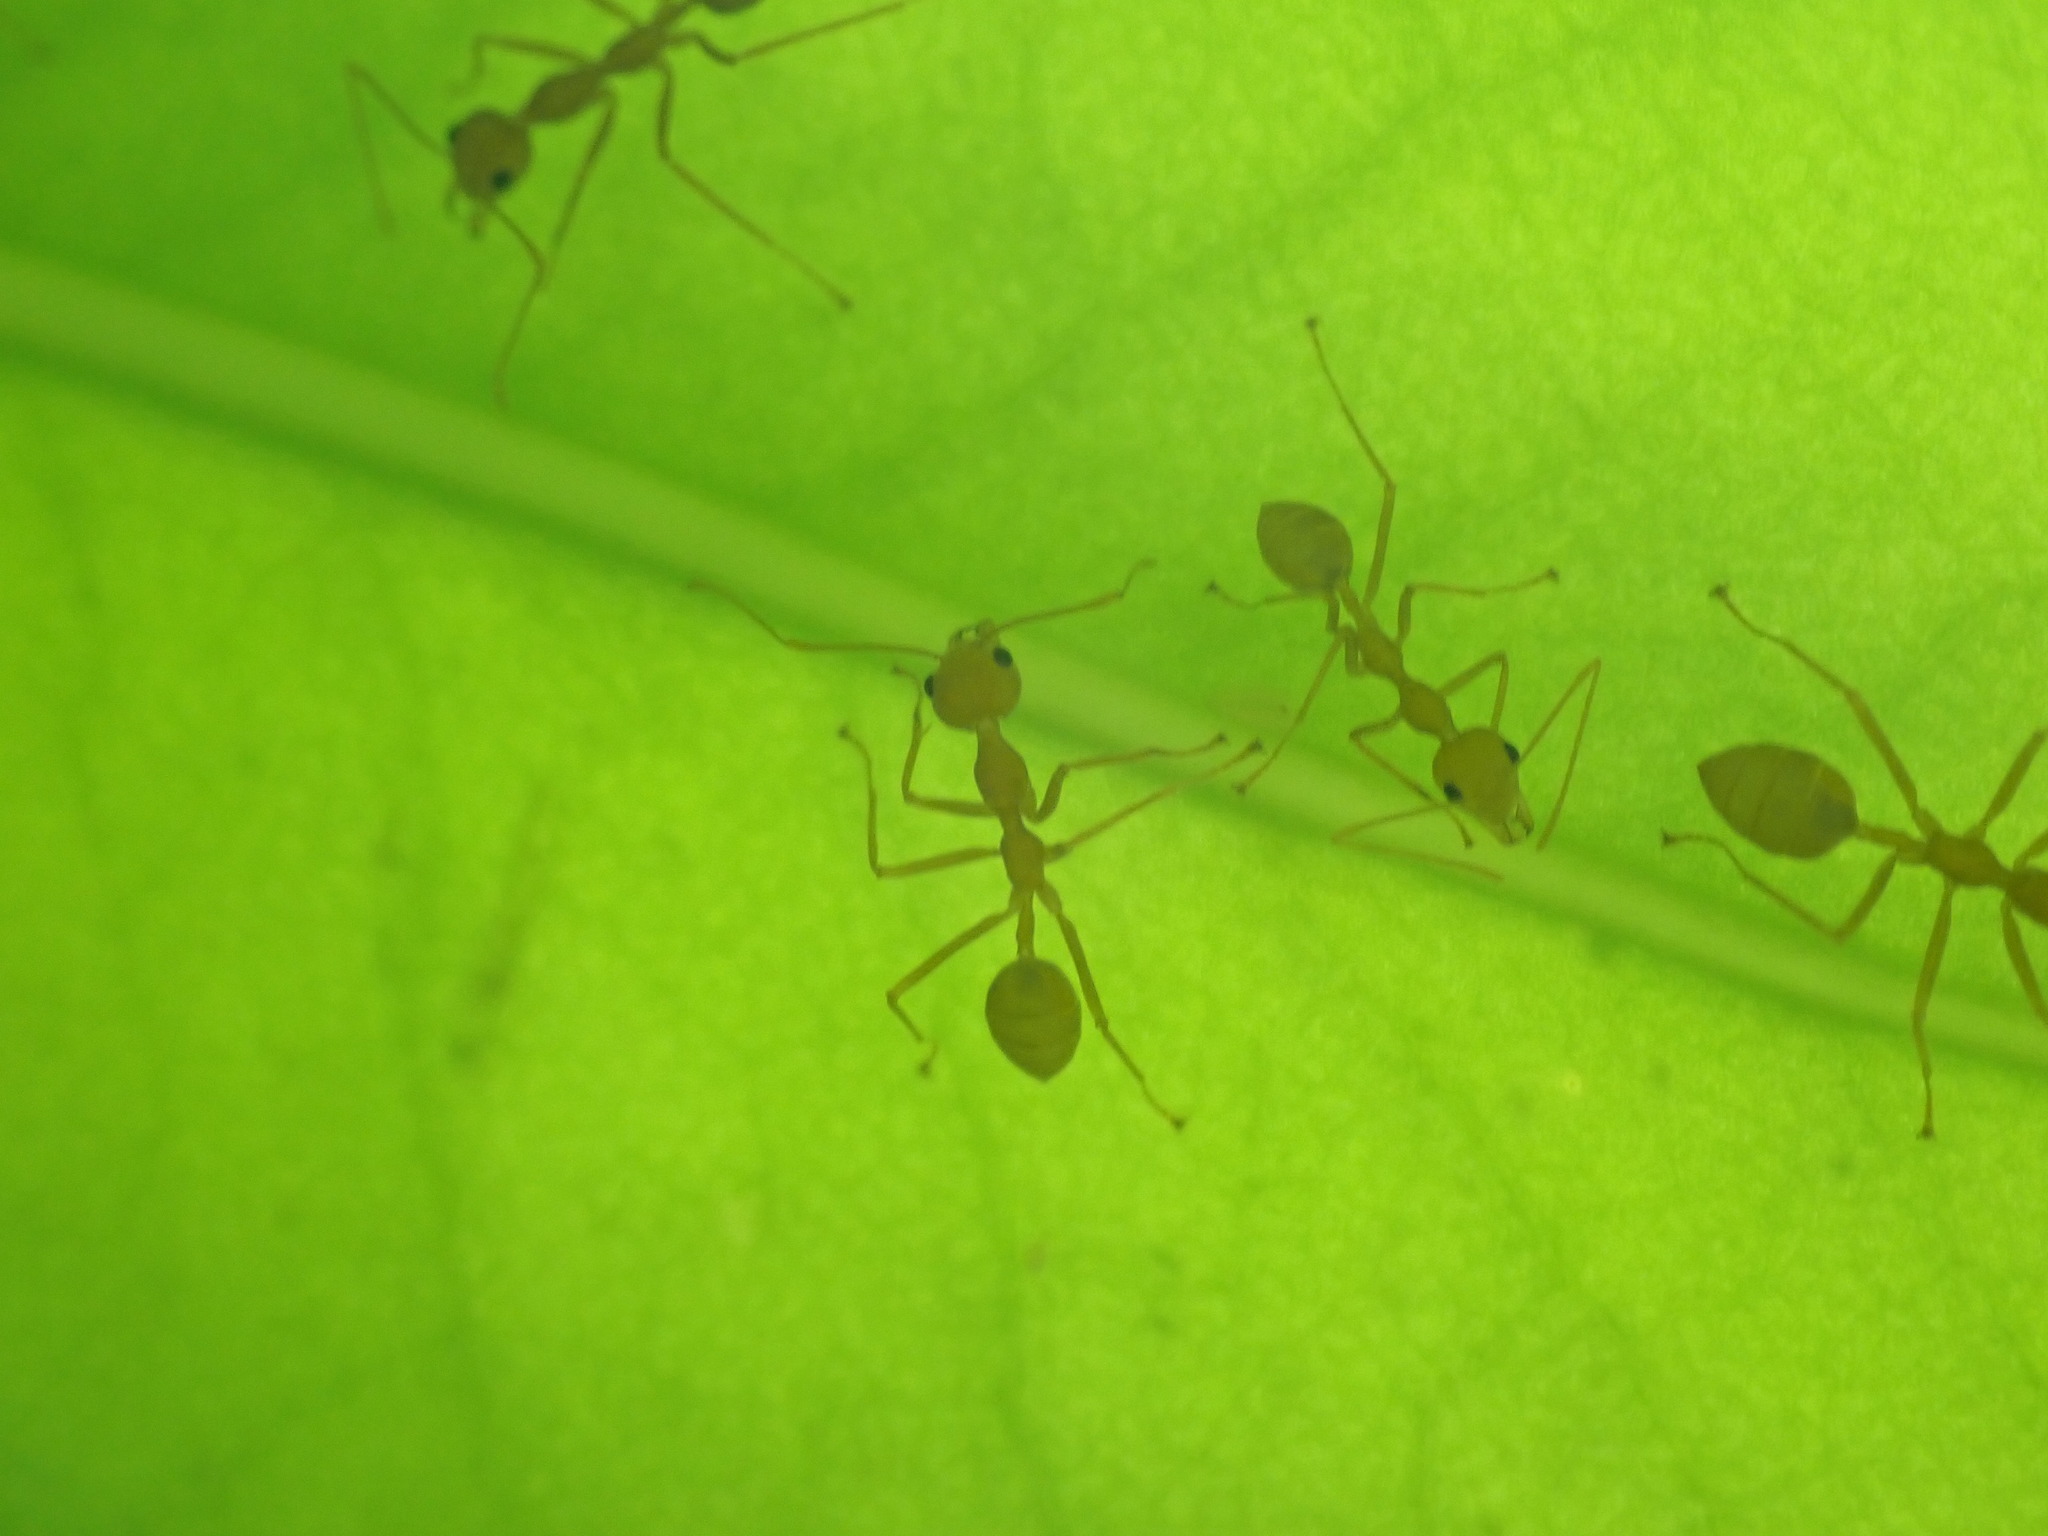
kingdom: Animalia
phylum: Arthropoda
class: Insecta
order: Hymenoptera
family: Formicidae
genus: Oecophylla
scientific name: Oecophylla smaragdina
